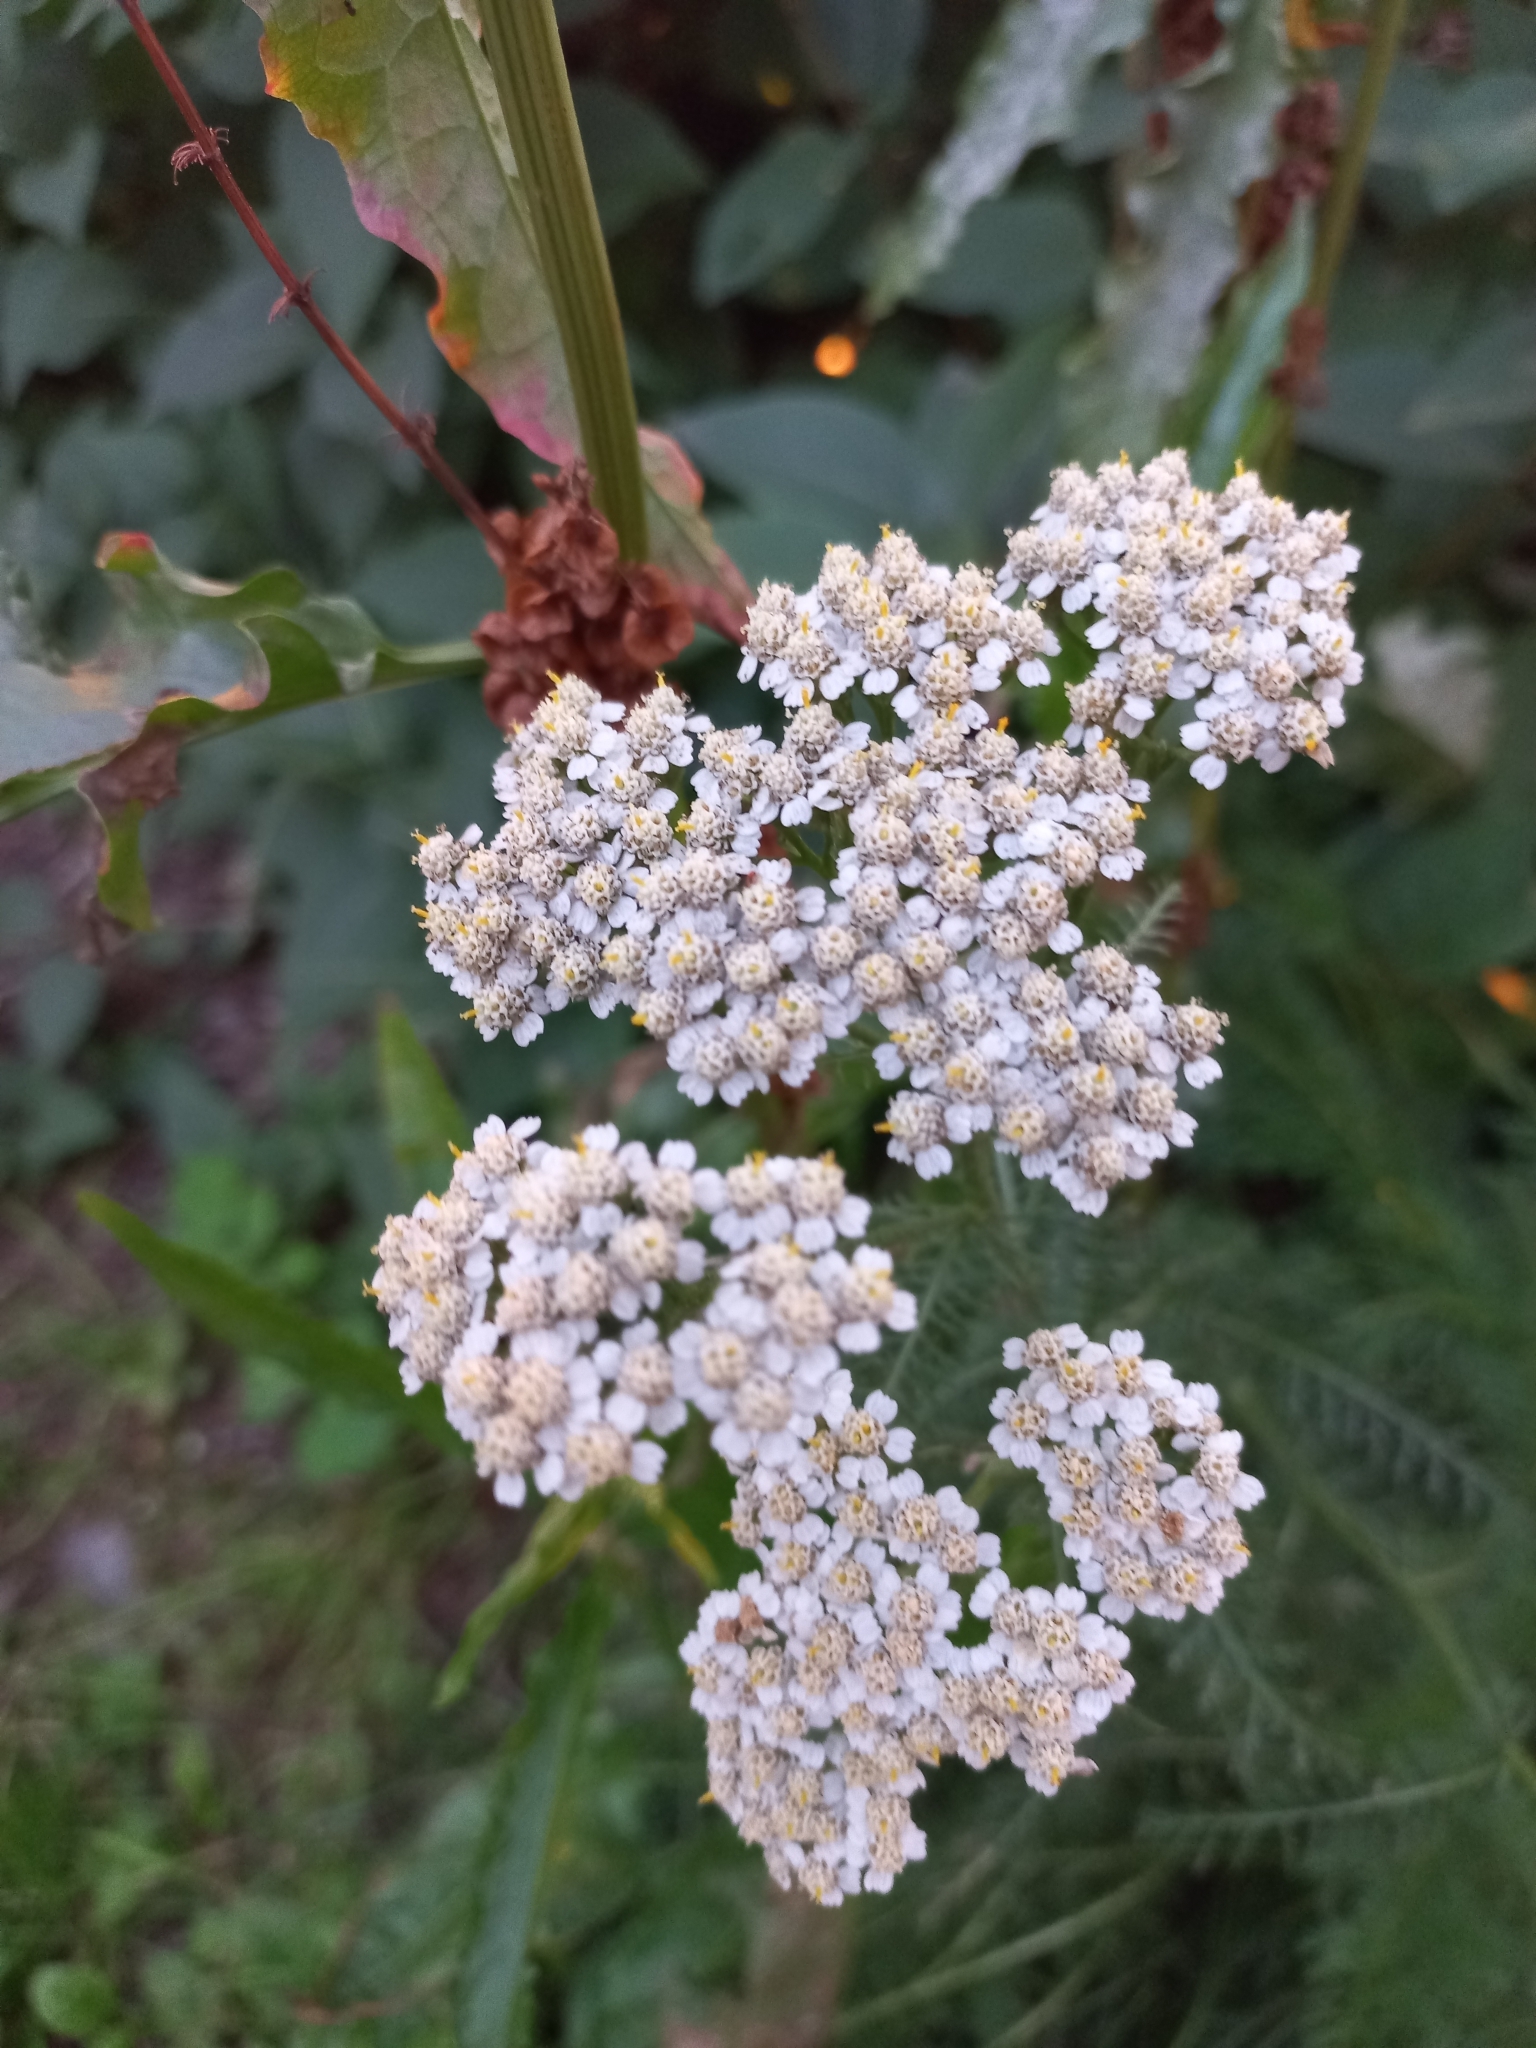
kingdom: Plantae
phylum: Tracheophyta
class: Magnoliopsida
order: Asterales
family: Asteraceae
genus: Achillea
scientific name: Achillea millefolium
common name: Yarrow
